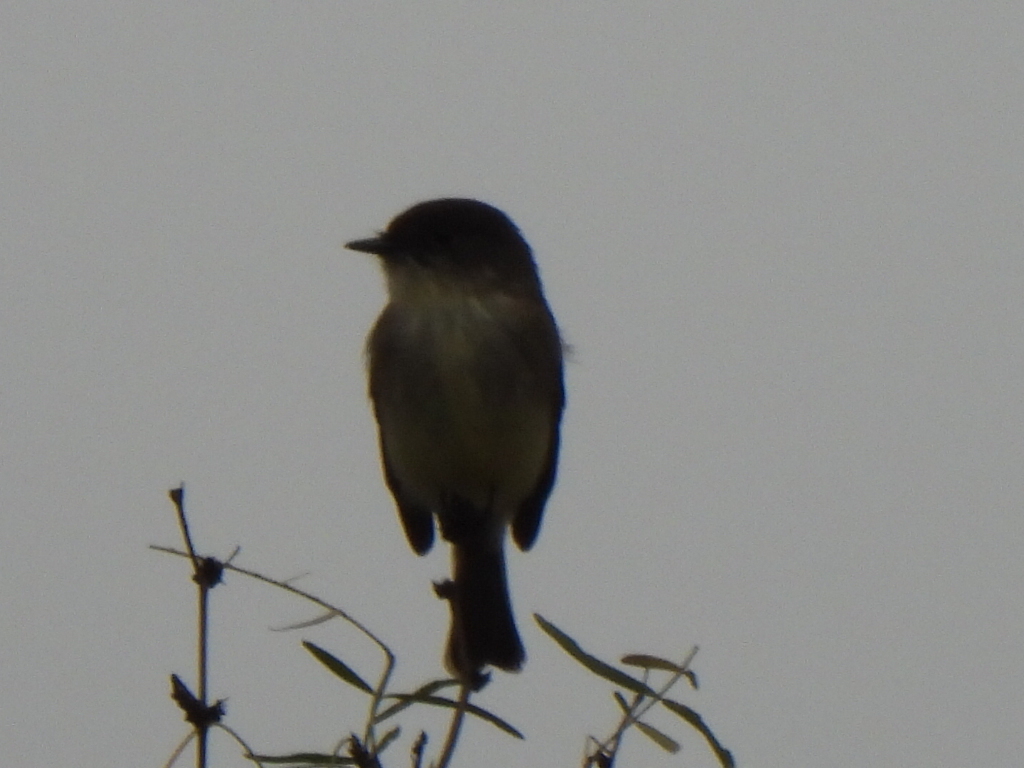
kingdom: Animalia
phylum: Chordata
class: Aves
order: Passeriformes
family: Tyrannidae
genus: Sayornis
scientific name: Sayornis phoebe
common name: Eastern phoebe
